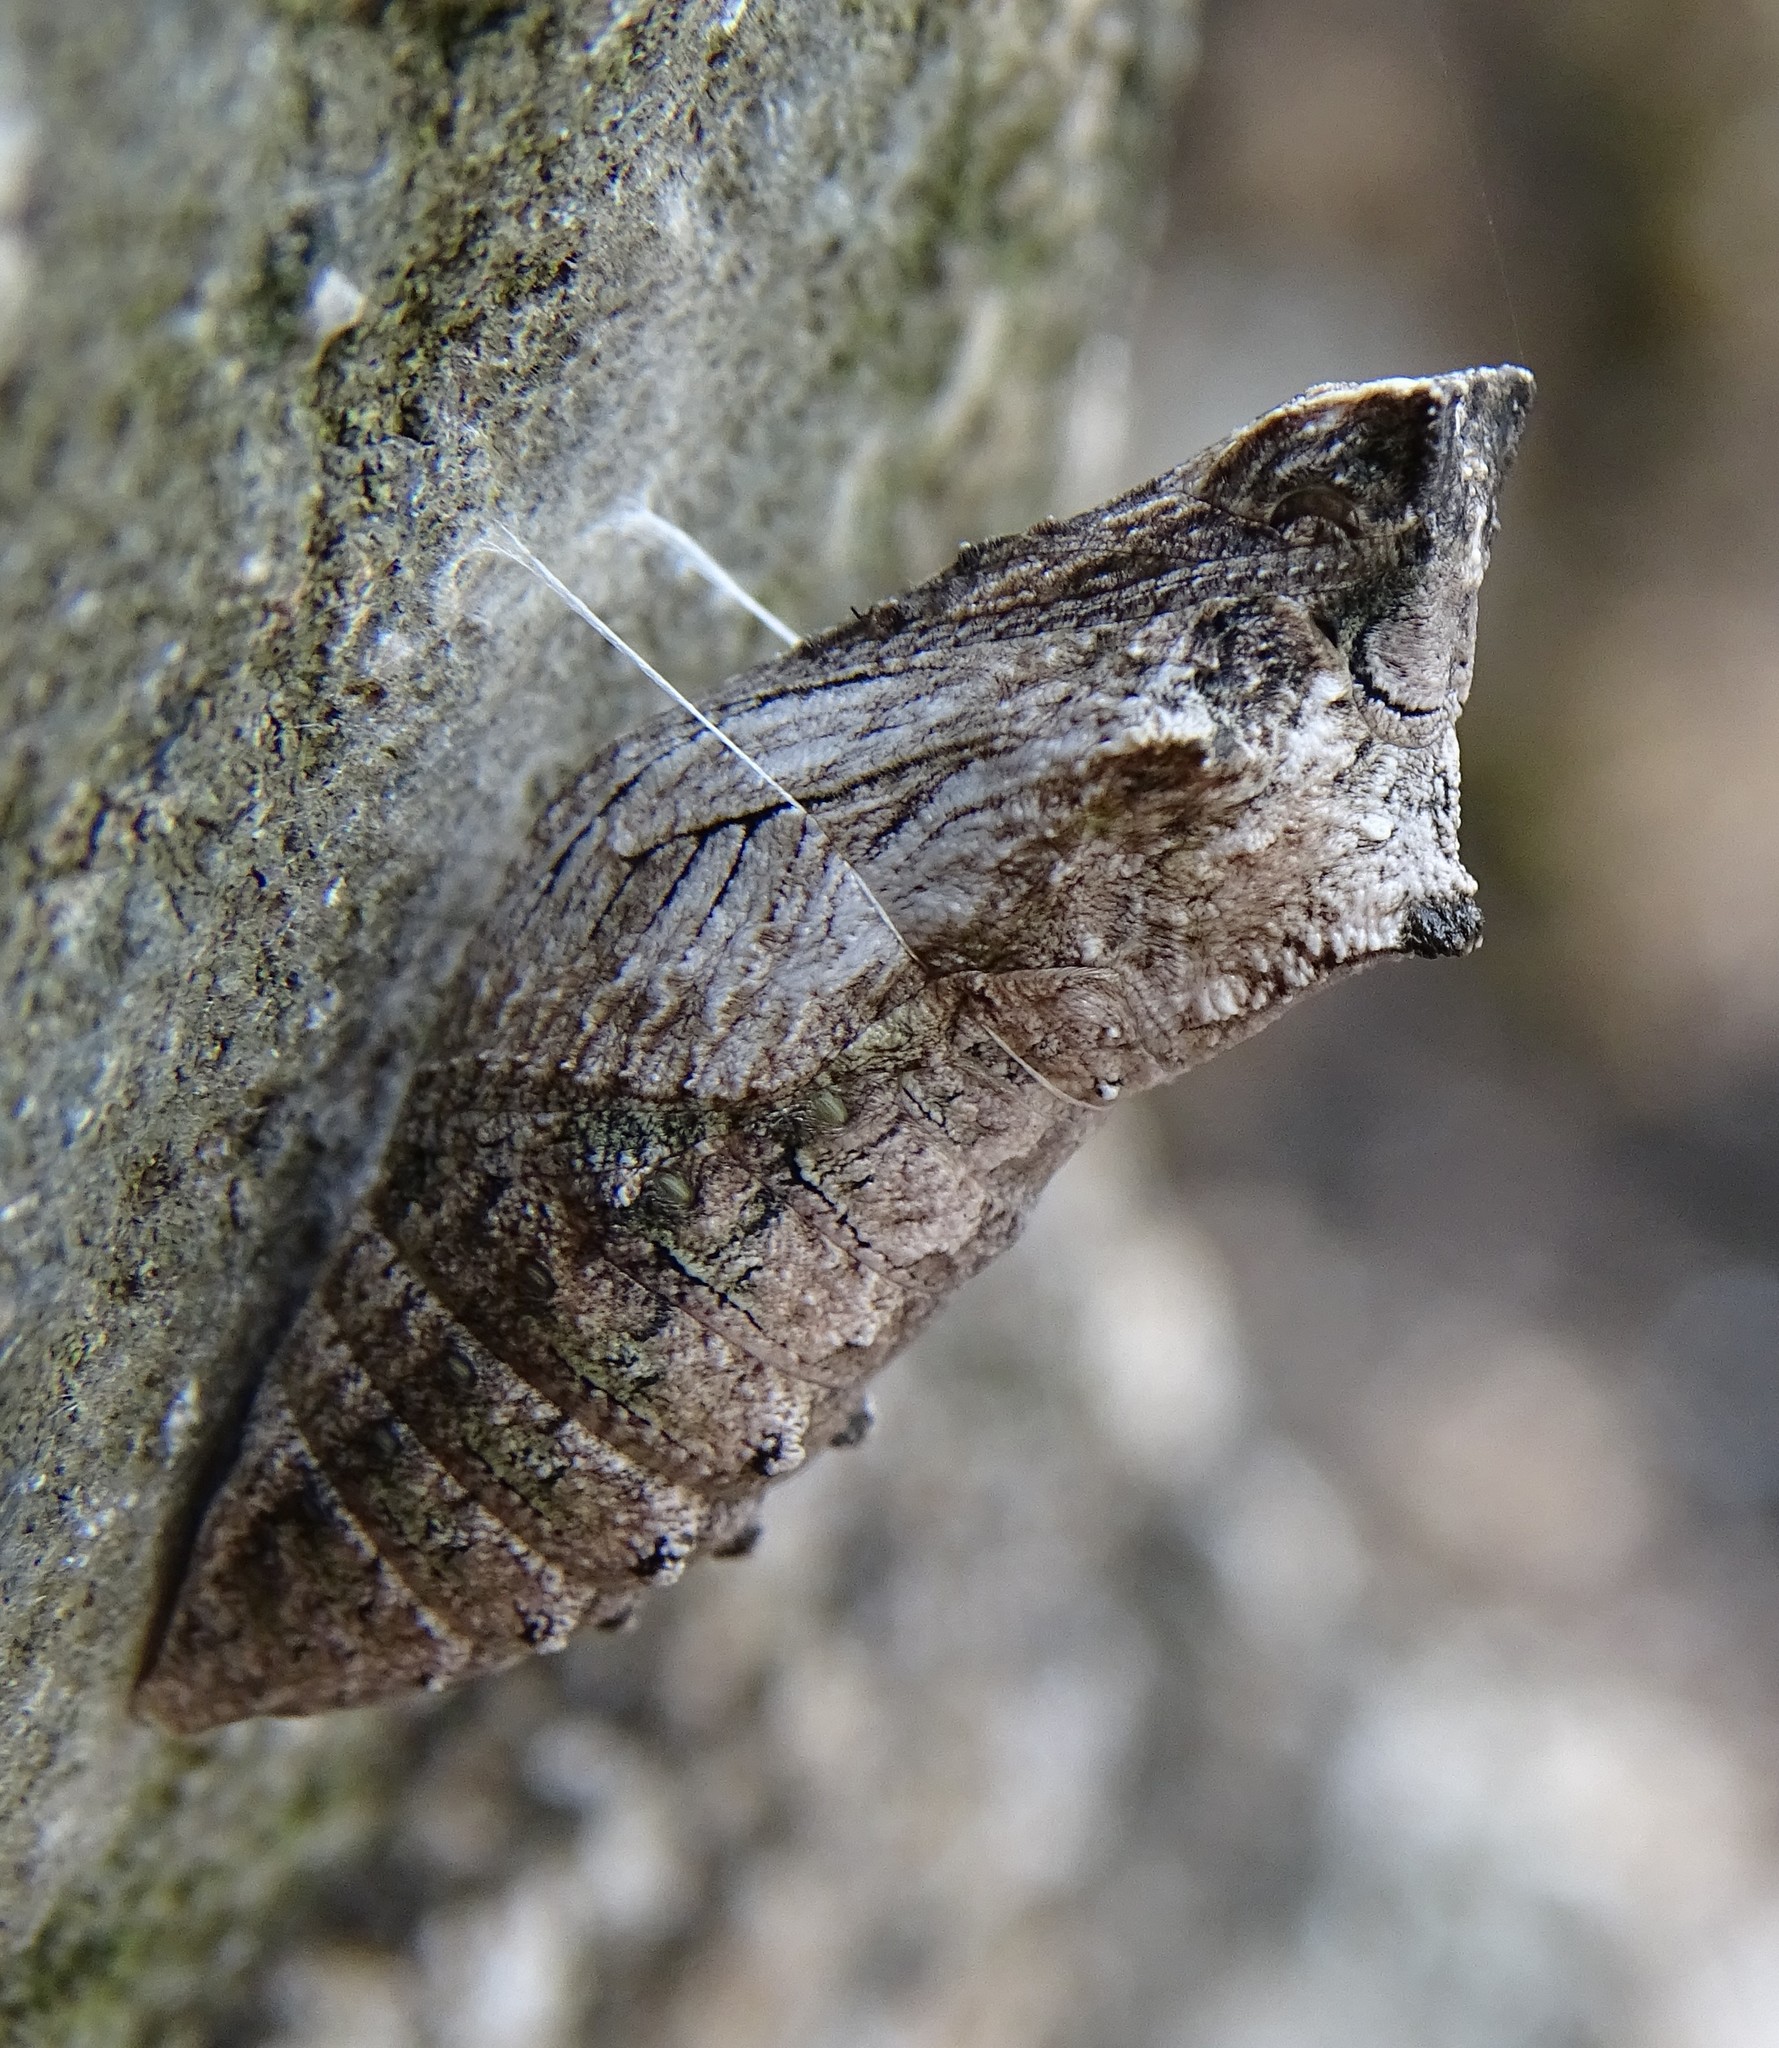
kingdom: Animalia
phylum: Arthropoda
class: Insecta
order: Lepidoptera
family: Papilionidae
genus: Papilio
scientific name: Papilio machaon
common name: Swallowtail
